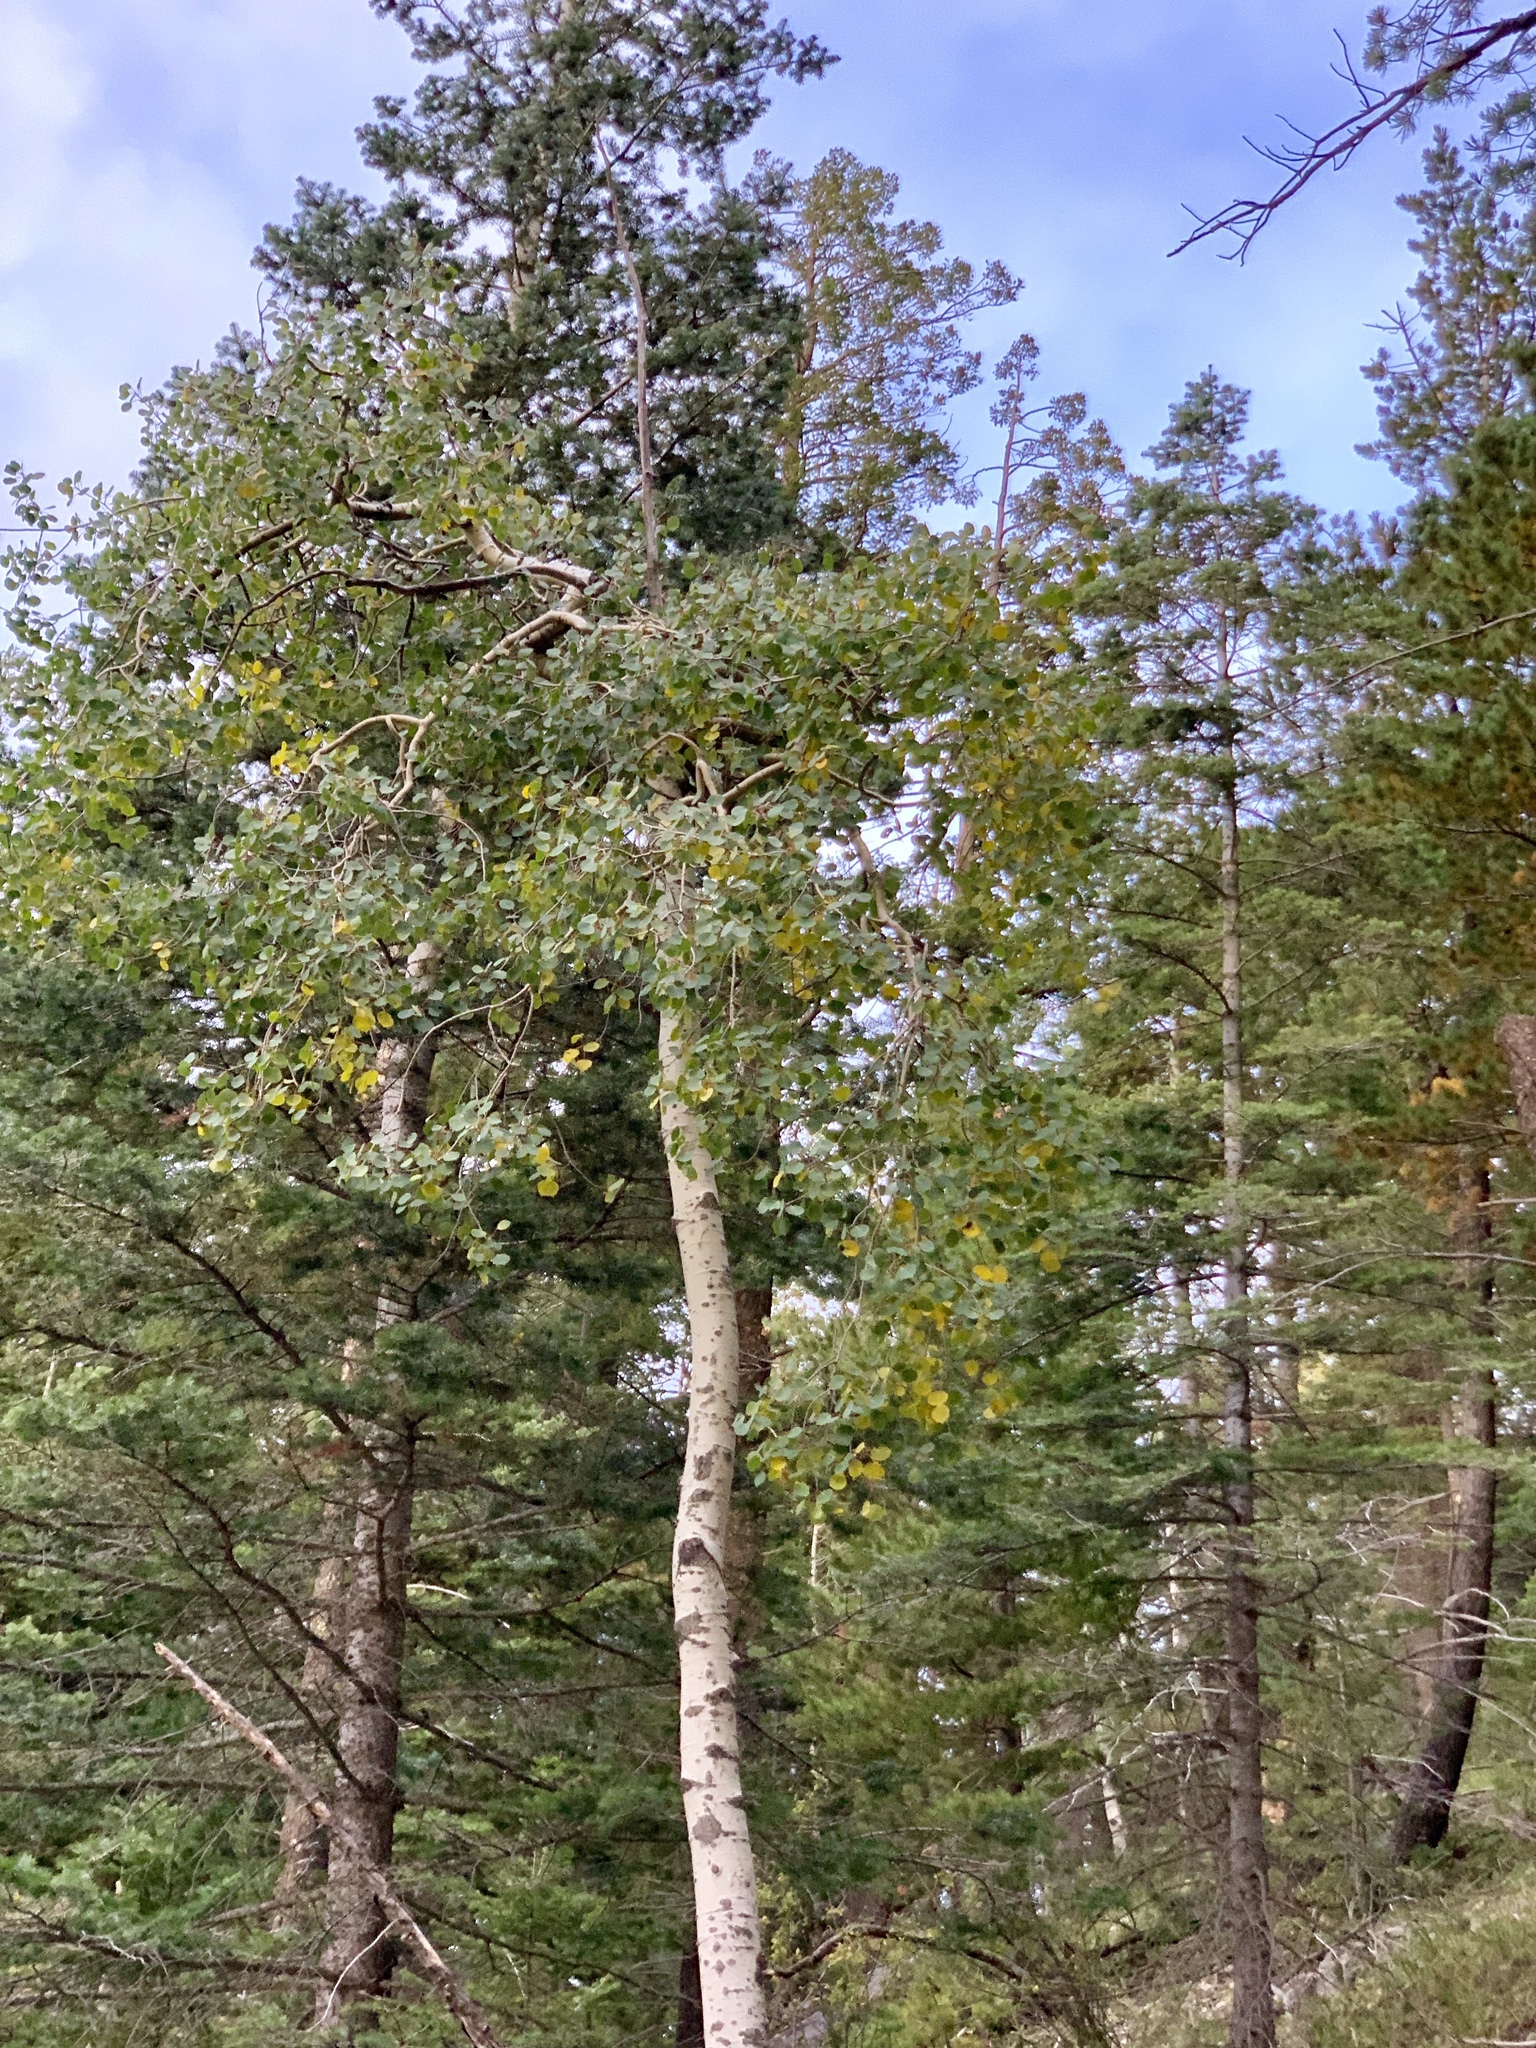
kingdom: Plantae
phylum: Tracheophyta
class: Magnoliopsida
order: Malpighiales
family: Salicaceae
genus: Populus
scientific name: Populus tremuloides
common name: Quaking aspen
